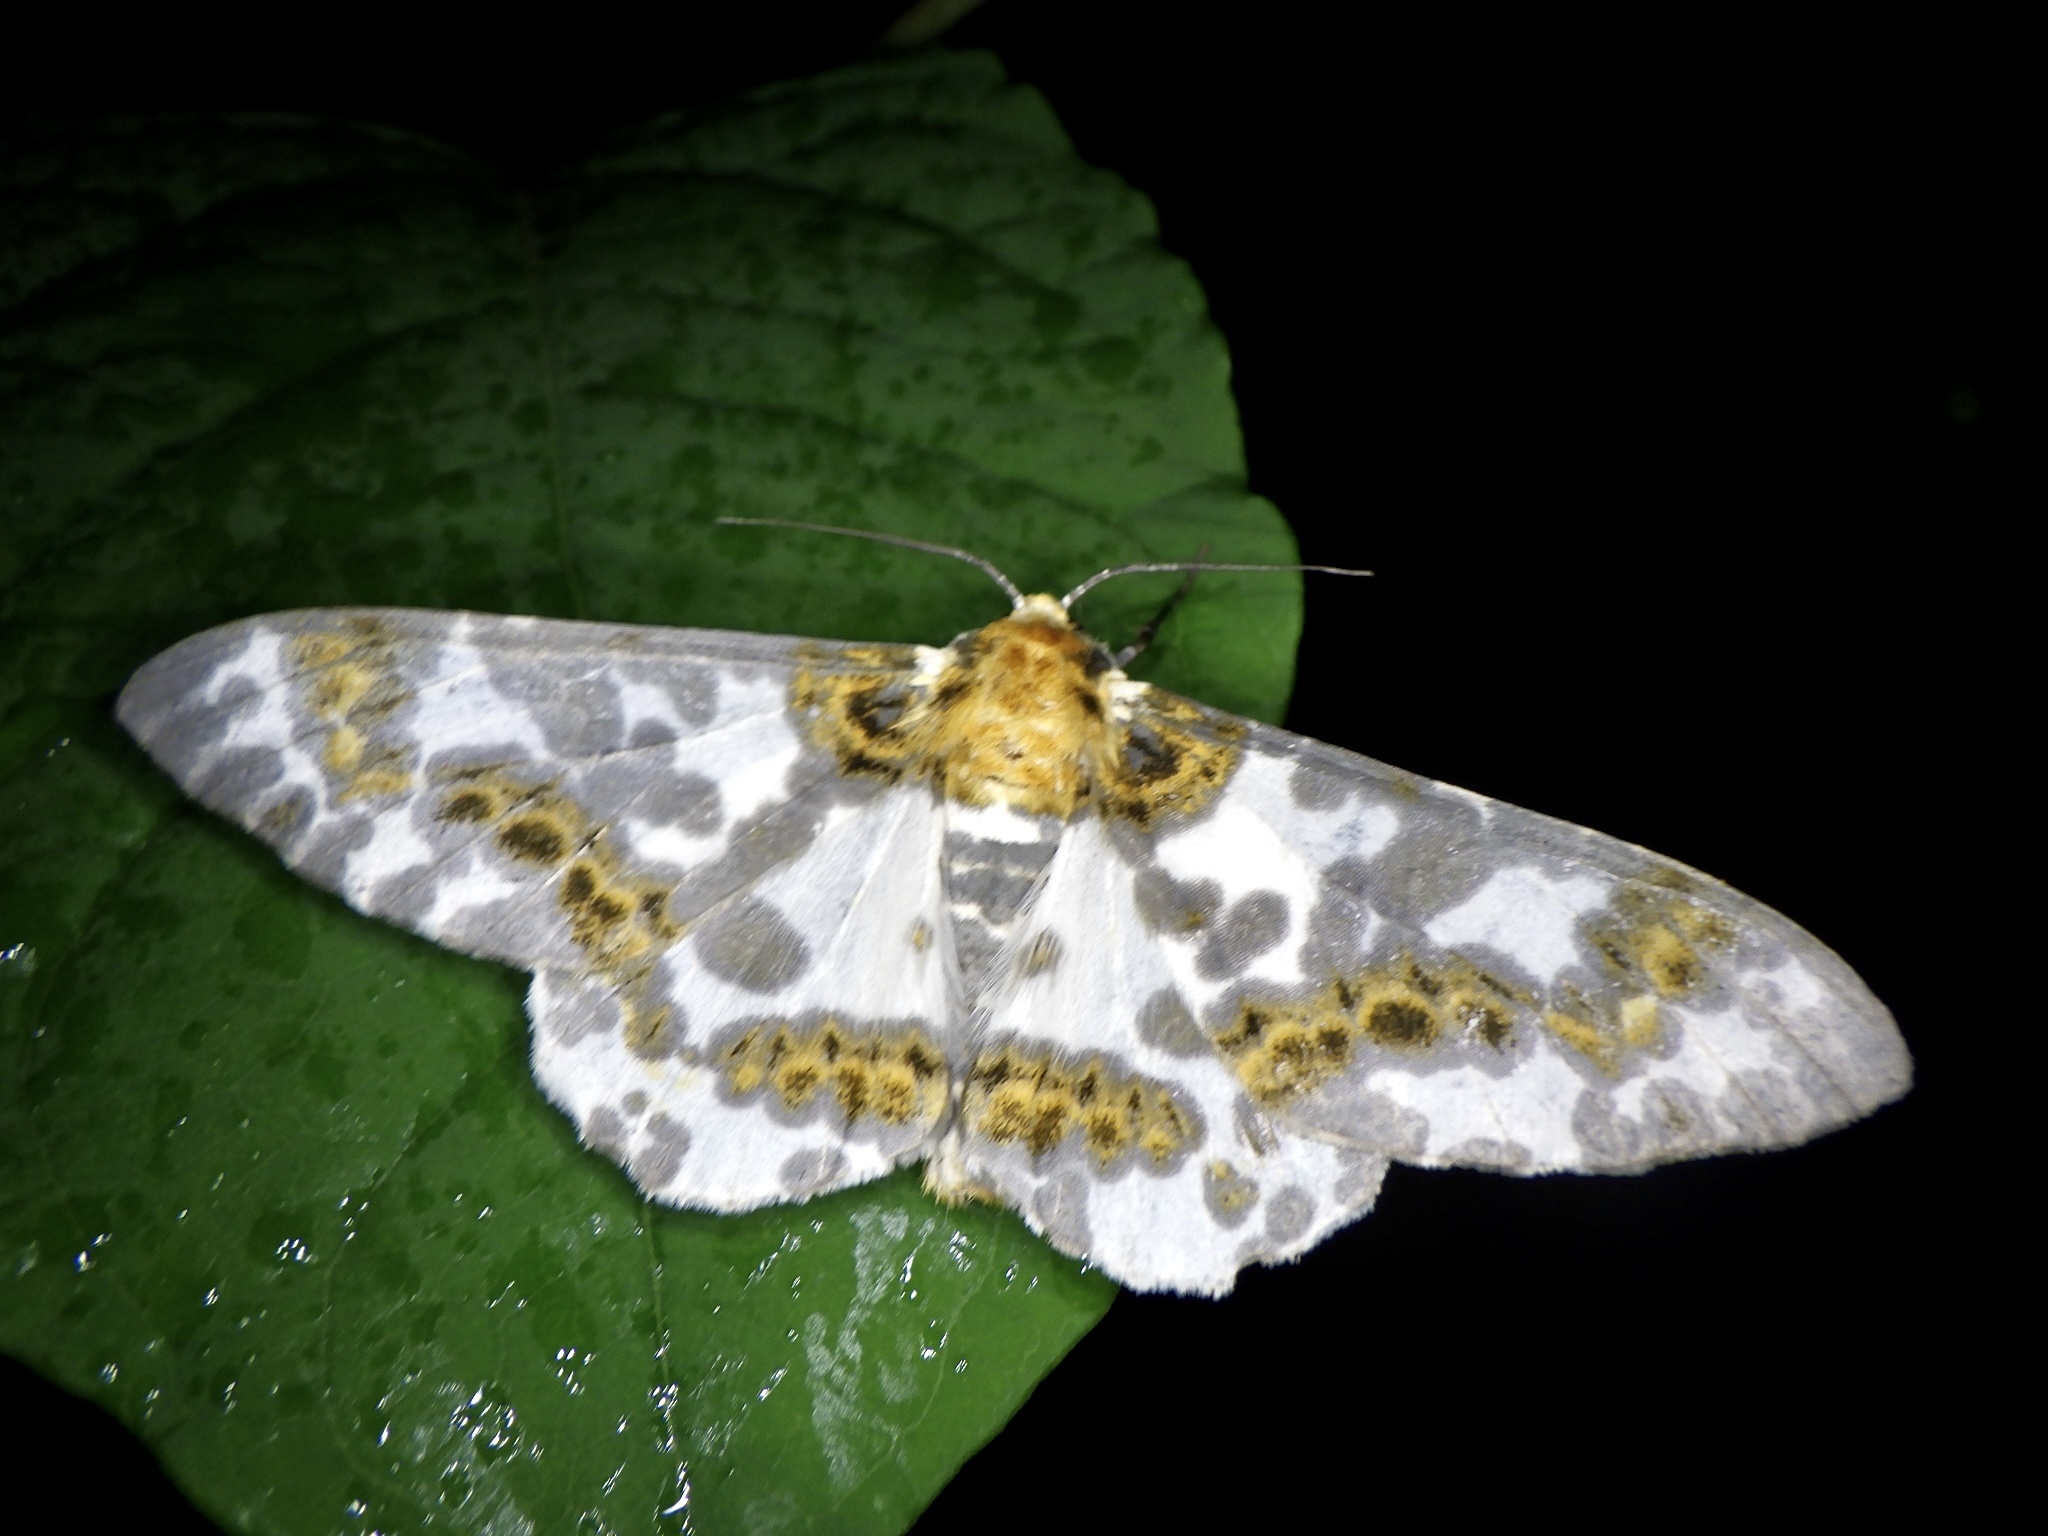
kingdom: Animalia
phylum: Arthropoda
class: Insecta
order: Lepidoptera
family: Geometridae
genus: Biston
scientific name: Biston panterinaria
